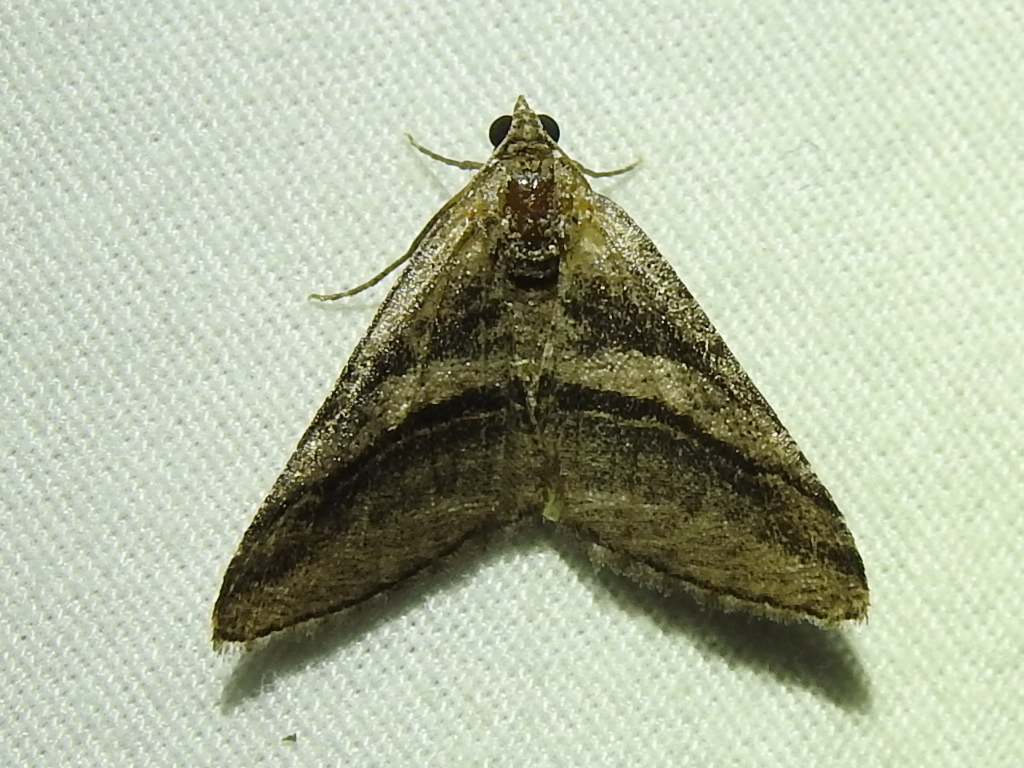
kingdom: Animalia
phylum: Arthropoda
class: Insecta
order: Lepidoptera
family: Geometridae
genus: Digrammia
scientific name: Digrammia atrofasciata
